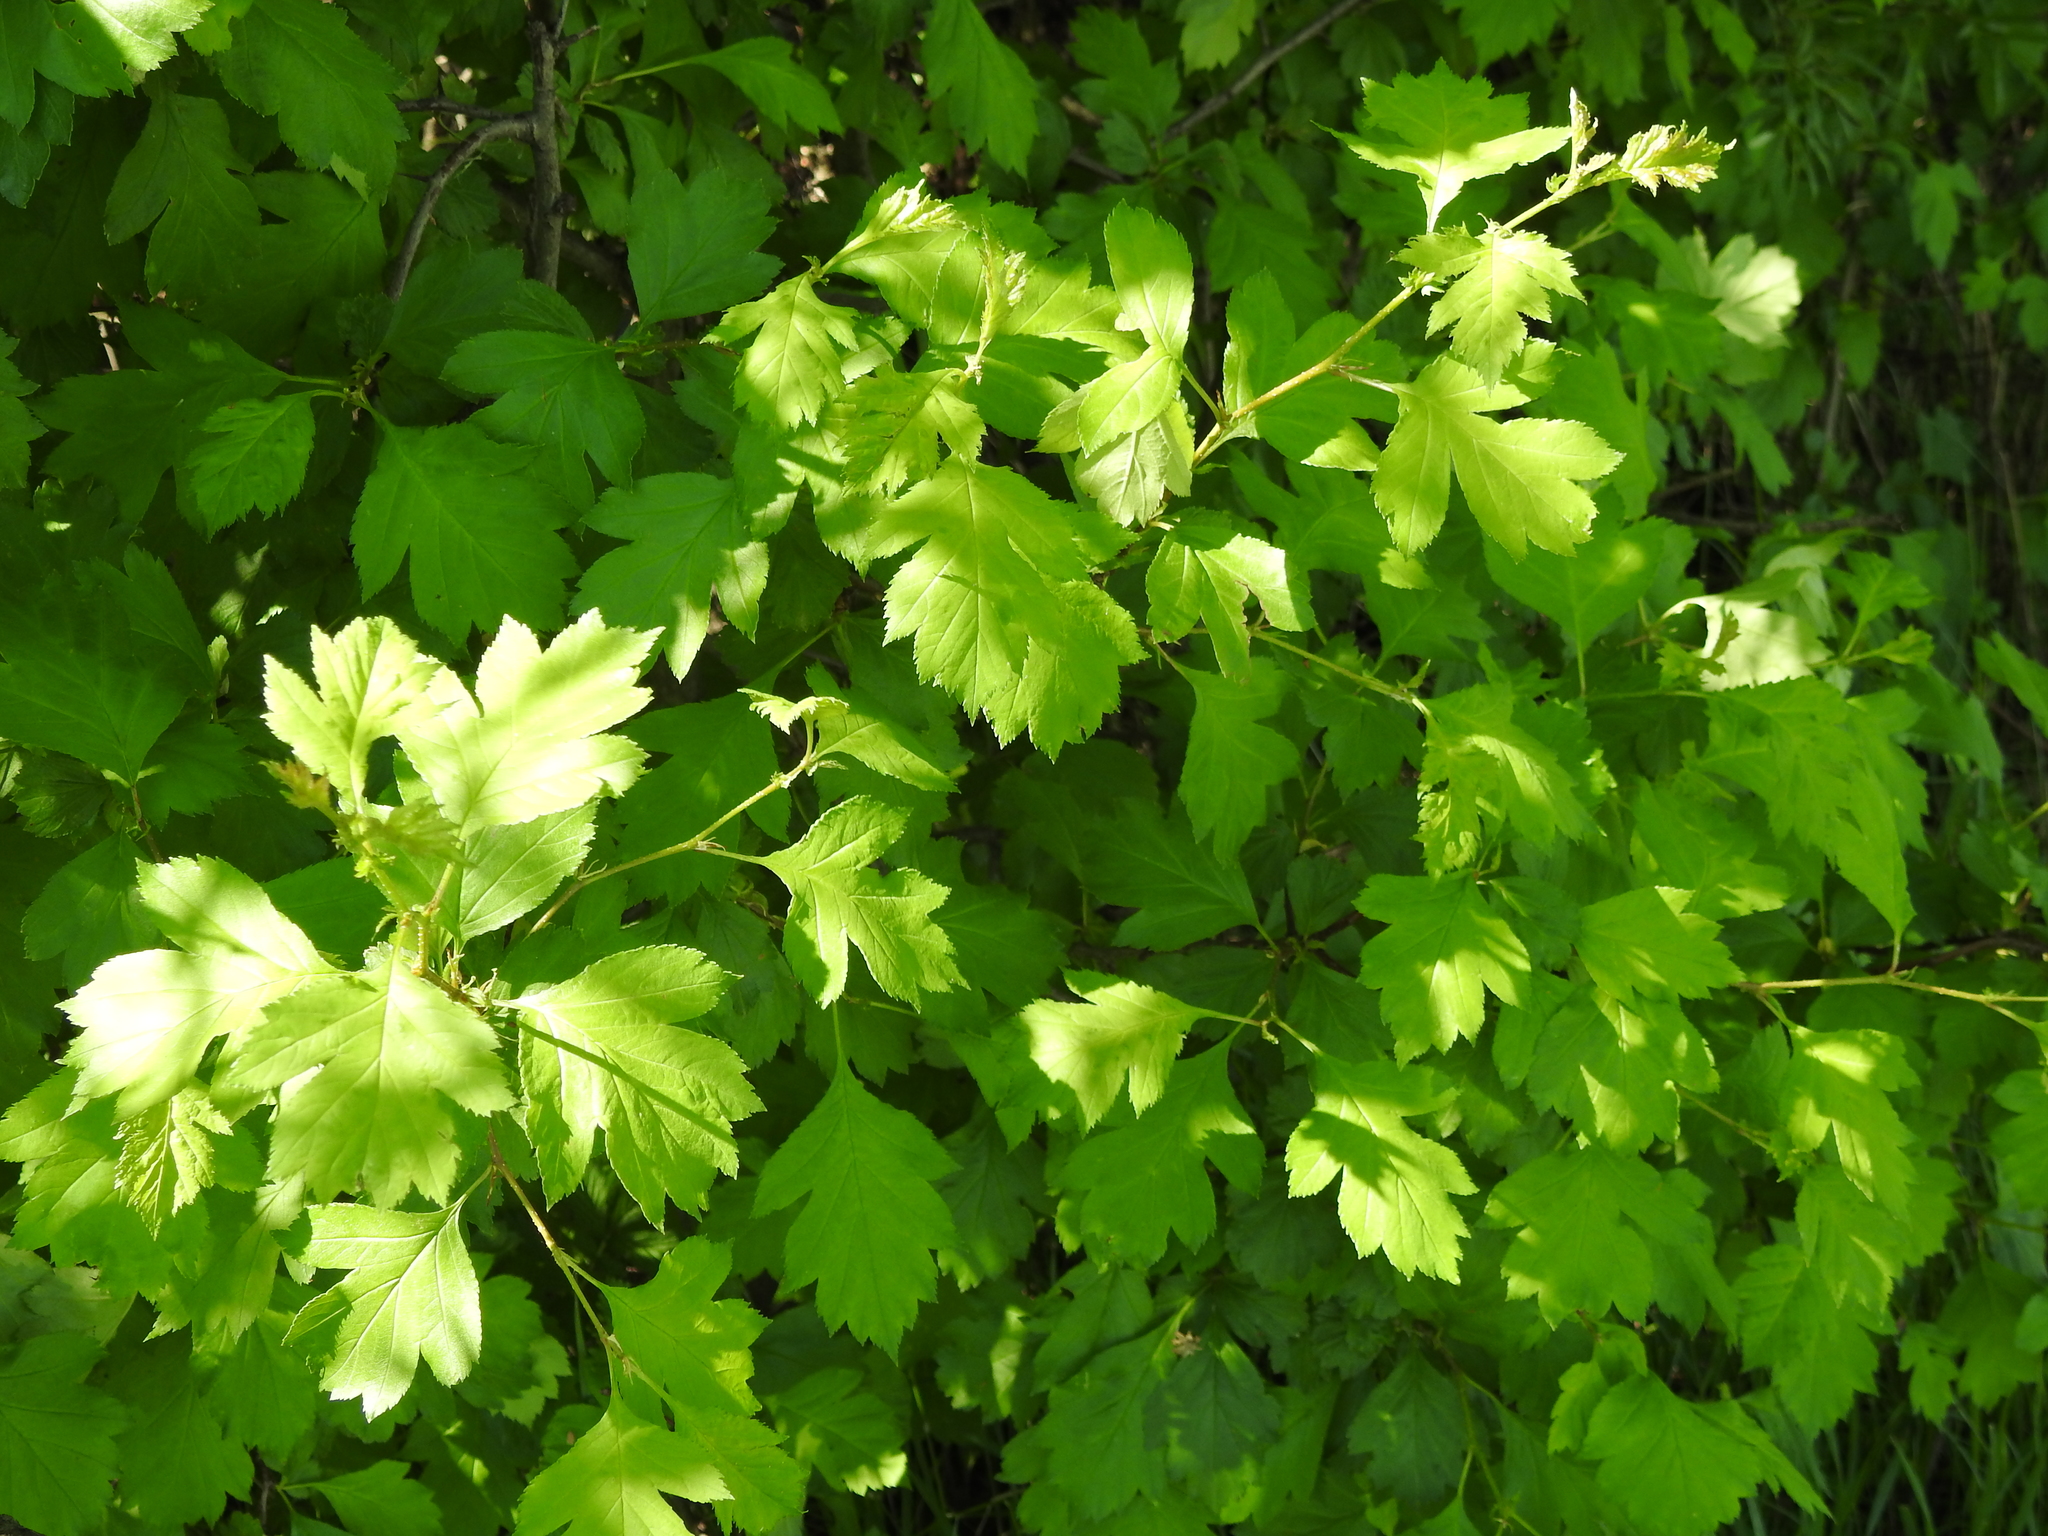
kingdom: Plantae
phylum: Tracheophyta
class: Magnoliopsida
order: Rosales
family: Rosaceae
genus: Crataegus
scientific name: Crataegus dahurica
